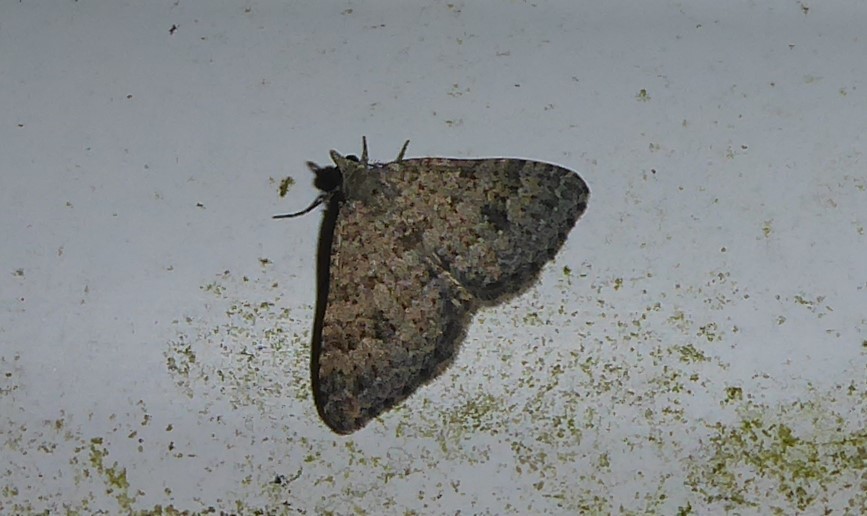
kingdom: Animalia
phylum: Arthropoda
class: Insecta
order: Lepidoptera
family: Geometridae
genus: Helastia
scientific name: Helastia corcularia
